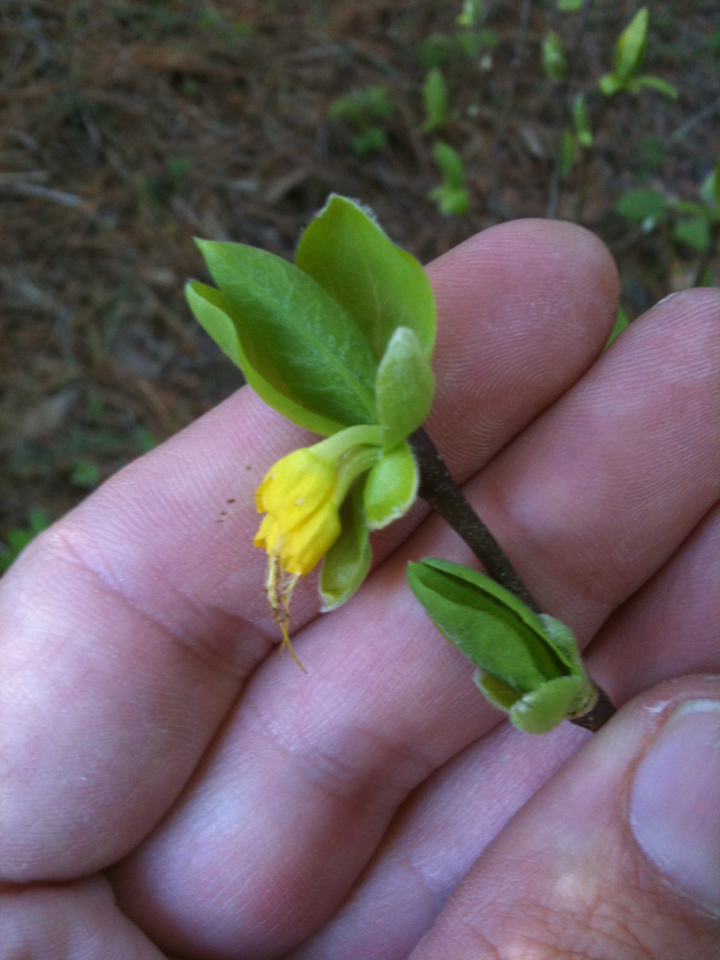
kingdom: Plantae
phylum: Tracheophyta
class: Magnoliopsida
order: Malvales
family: Thymelaeaceae
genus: Dirca
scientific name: Dirca occidentalis
